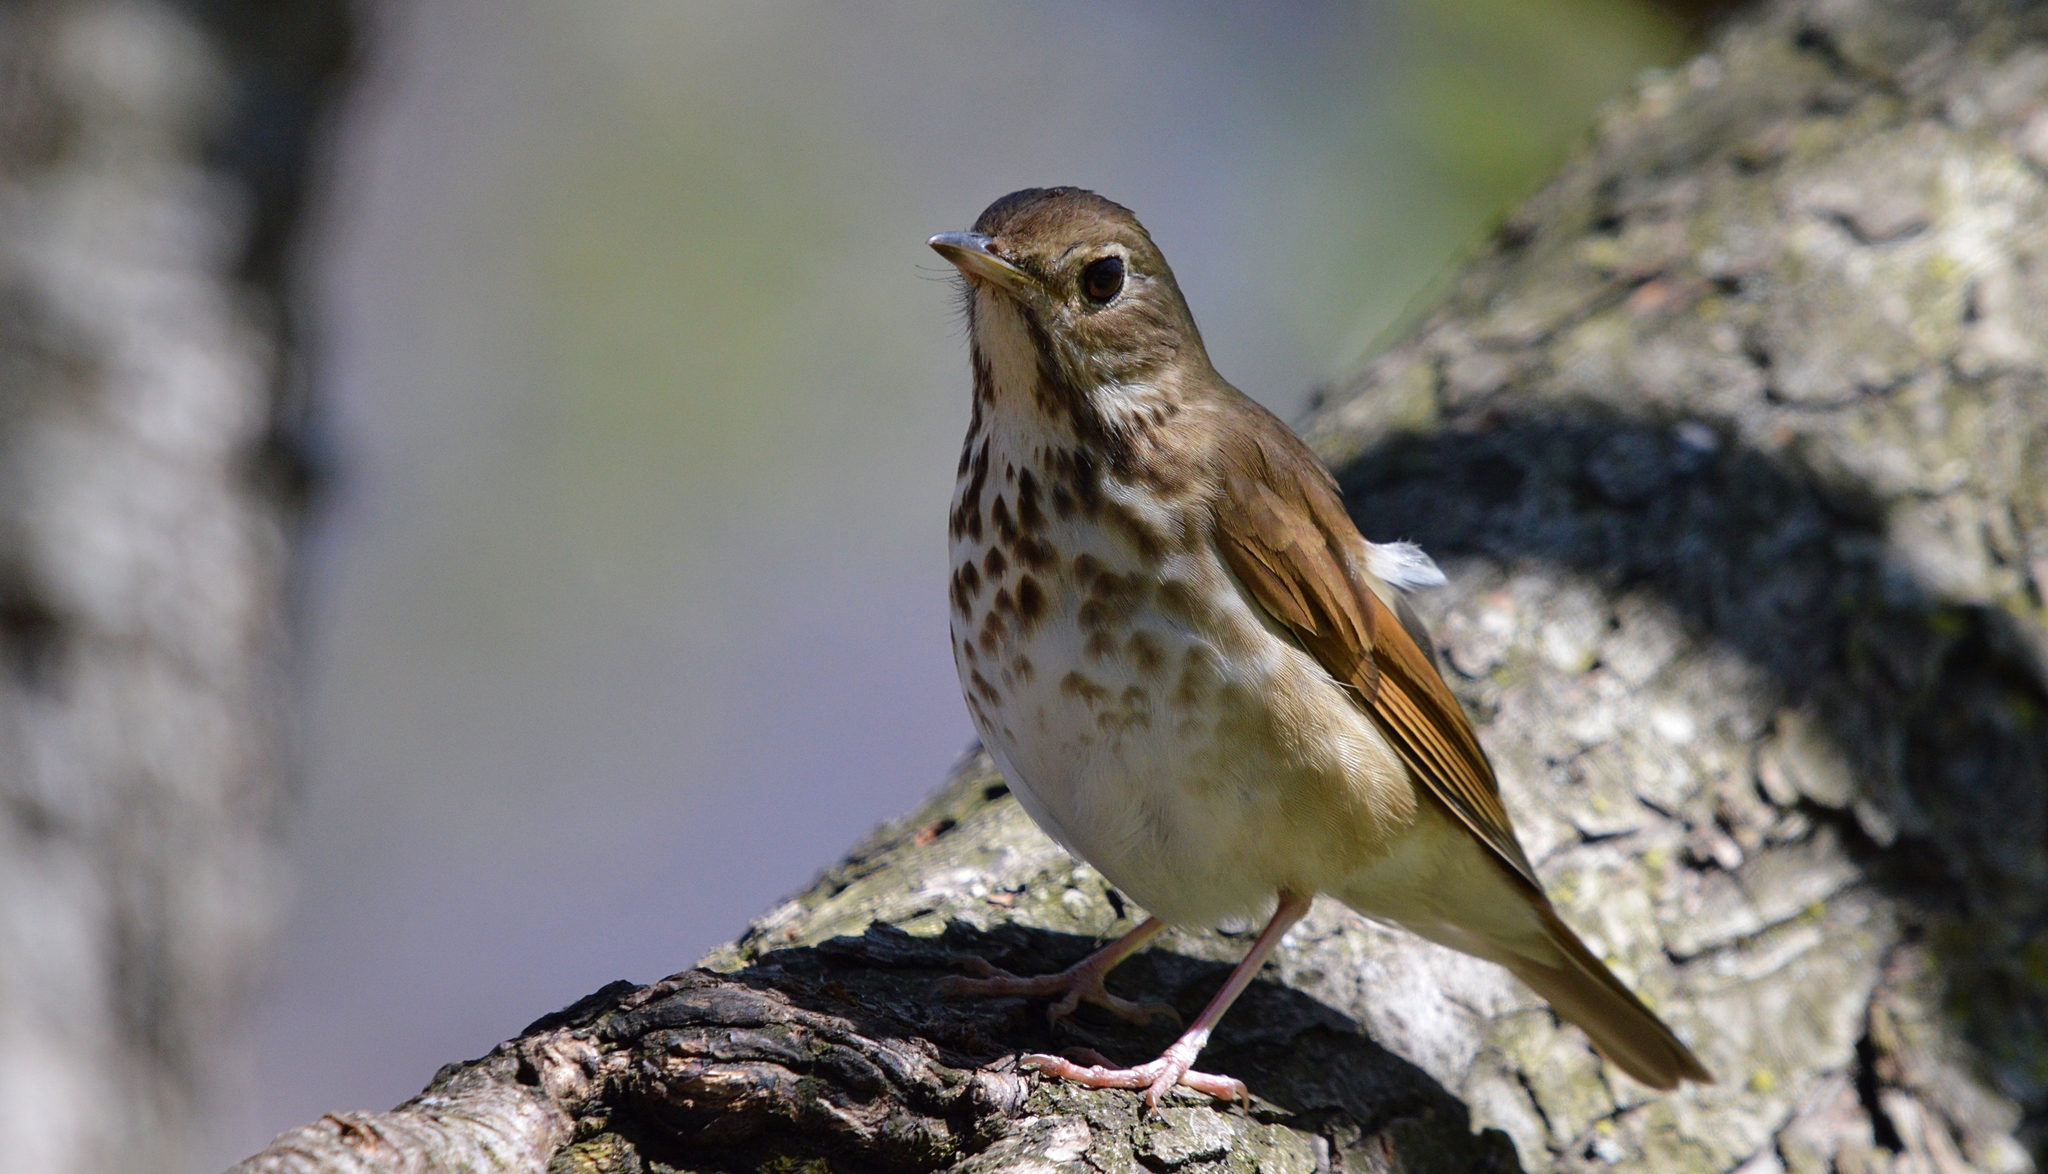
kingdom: Animalia
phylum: Chordata
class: Aves
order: Passeriformes
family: Turdidae
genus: Catharus
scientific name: Catharus guttatus
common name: Hermit thrush
